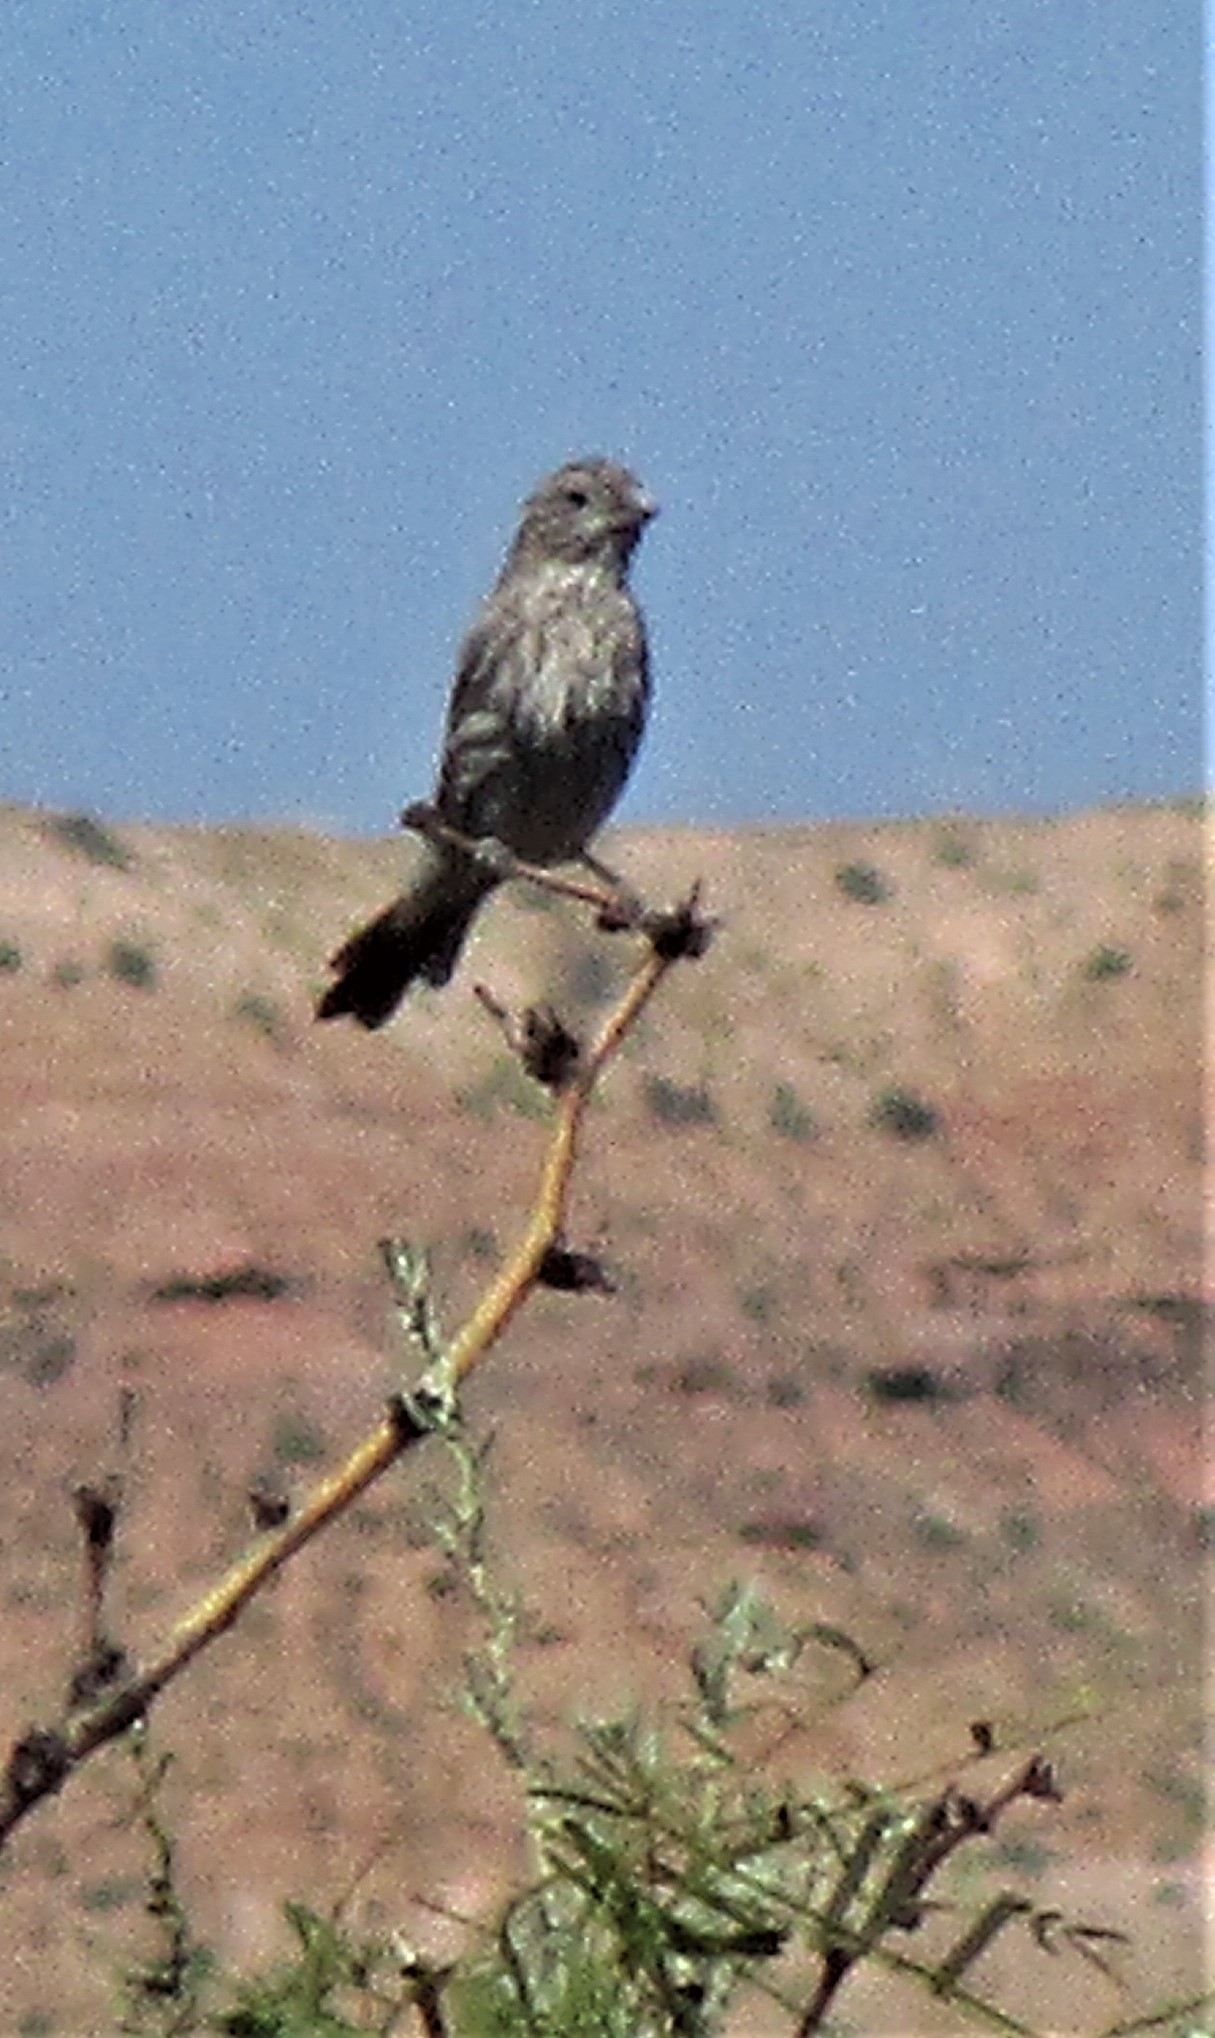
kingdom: Animalia
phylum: Chordata
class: Aves
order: Passeriformes
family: Fringillidae
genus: Haemorhous
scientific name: Haemorhous mexicanus
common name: House finch
